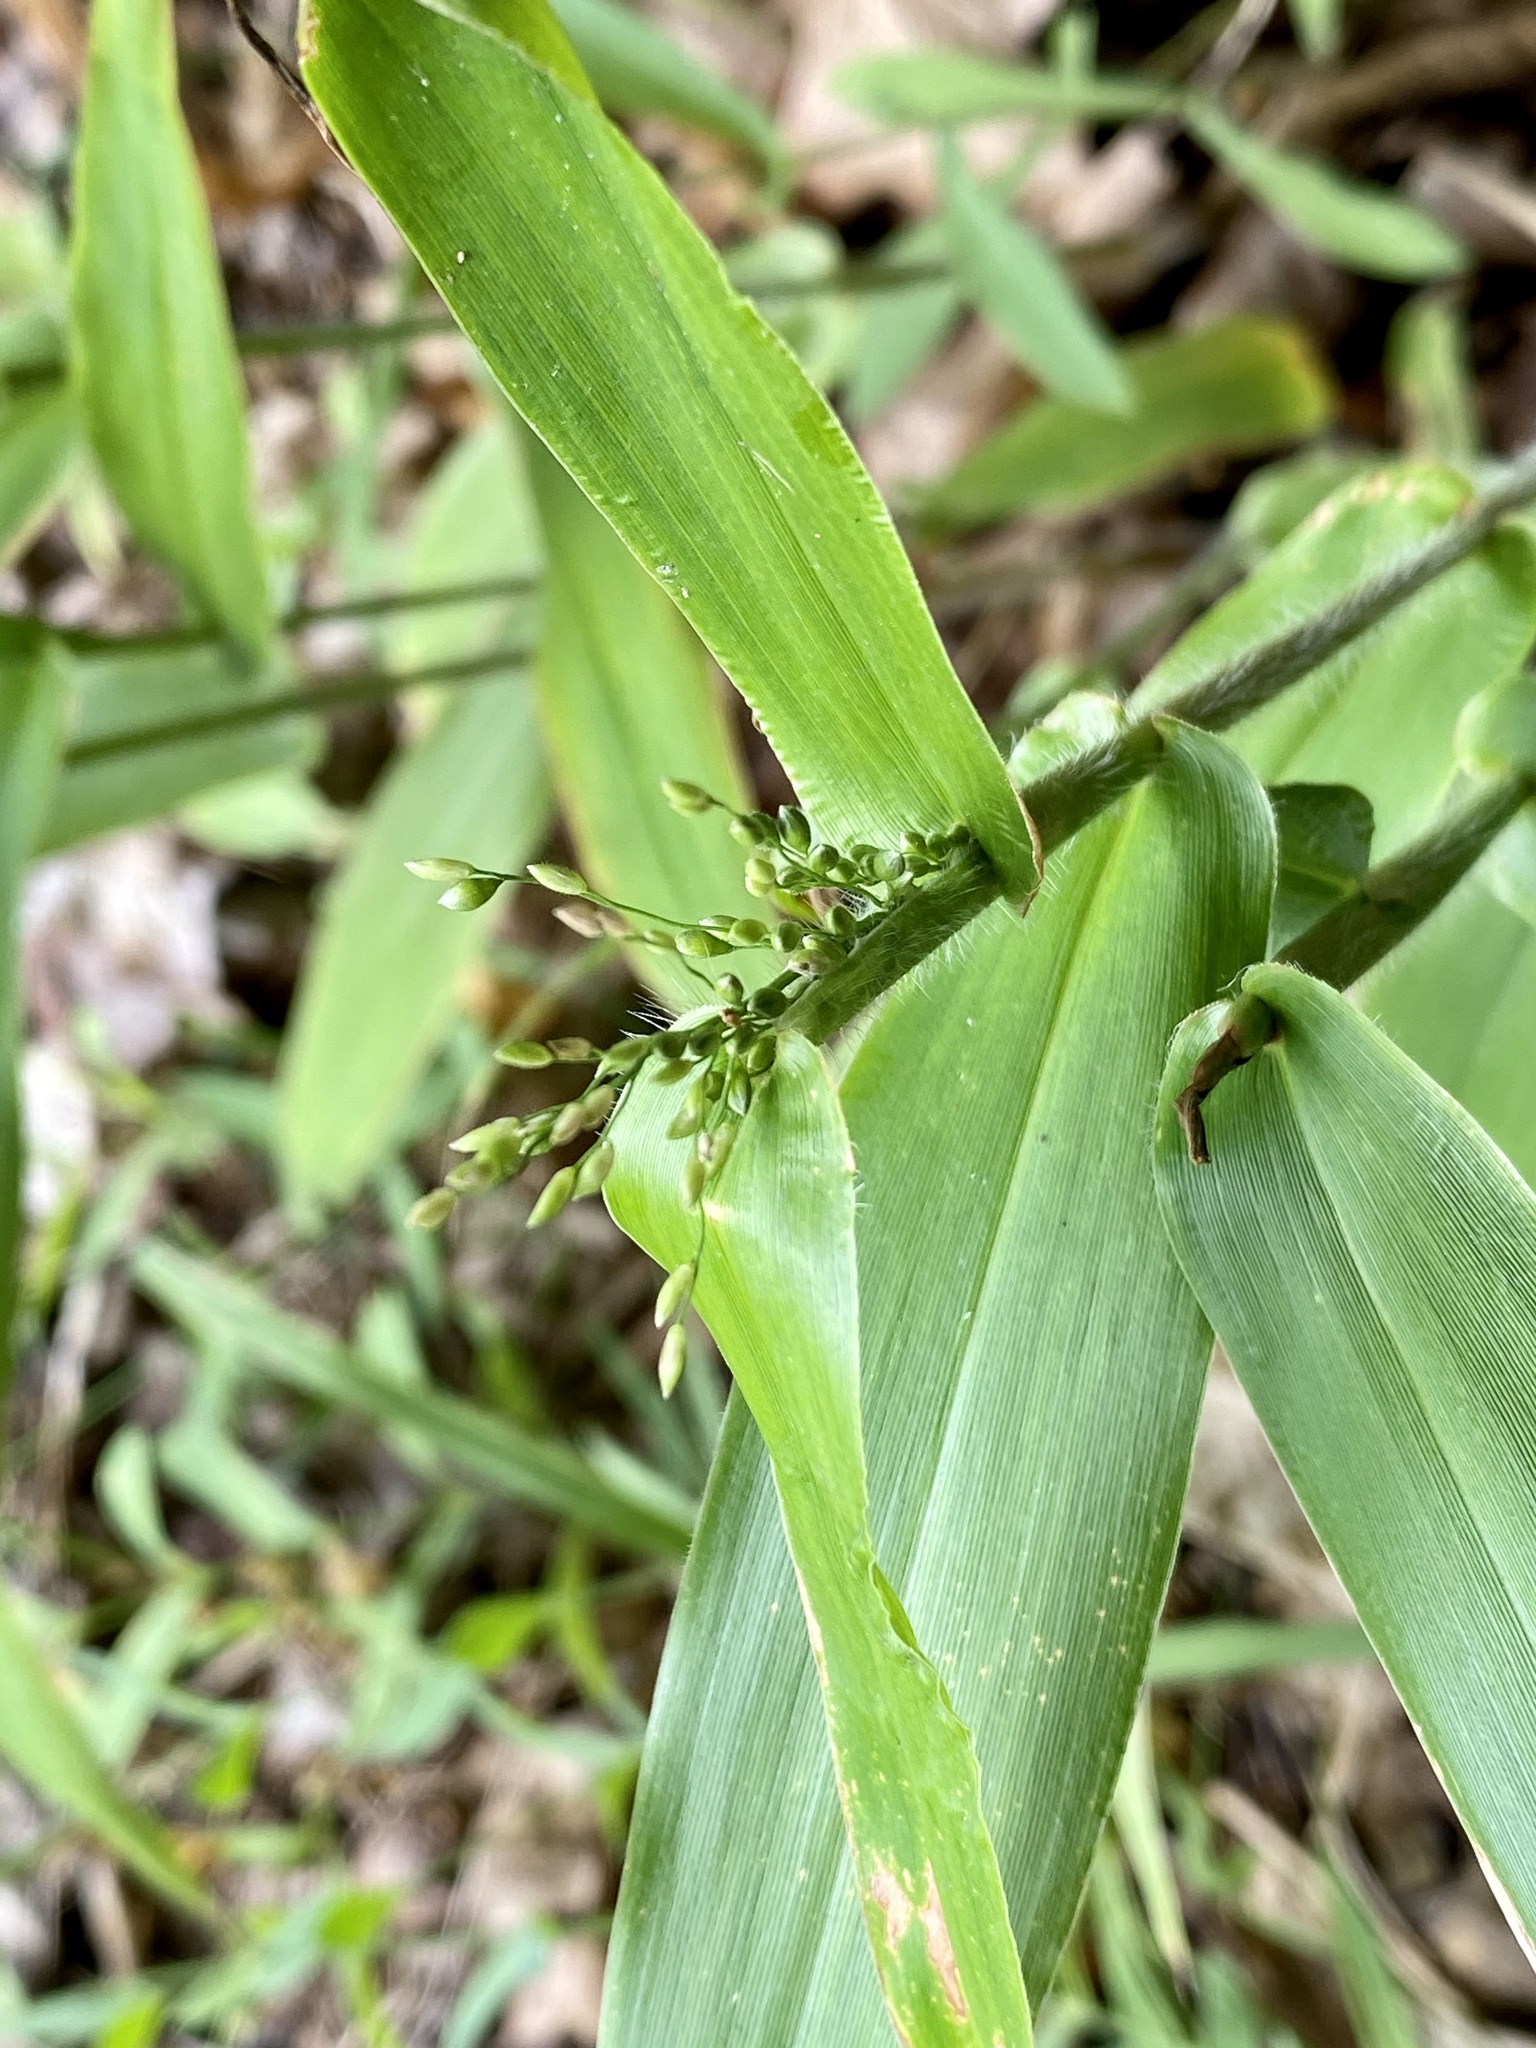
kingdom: Plantae
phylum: Tracheophyta
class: Liliopsida
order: Poales
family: Poaceae
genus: Dichanthelium
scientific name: Dichanthelium clandestinum
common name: Deer-tongue grass
